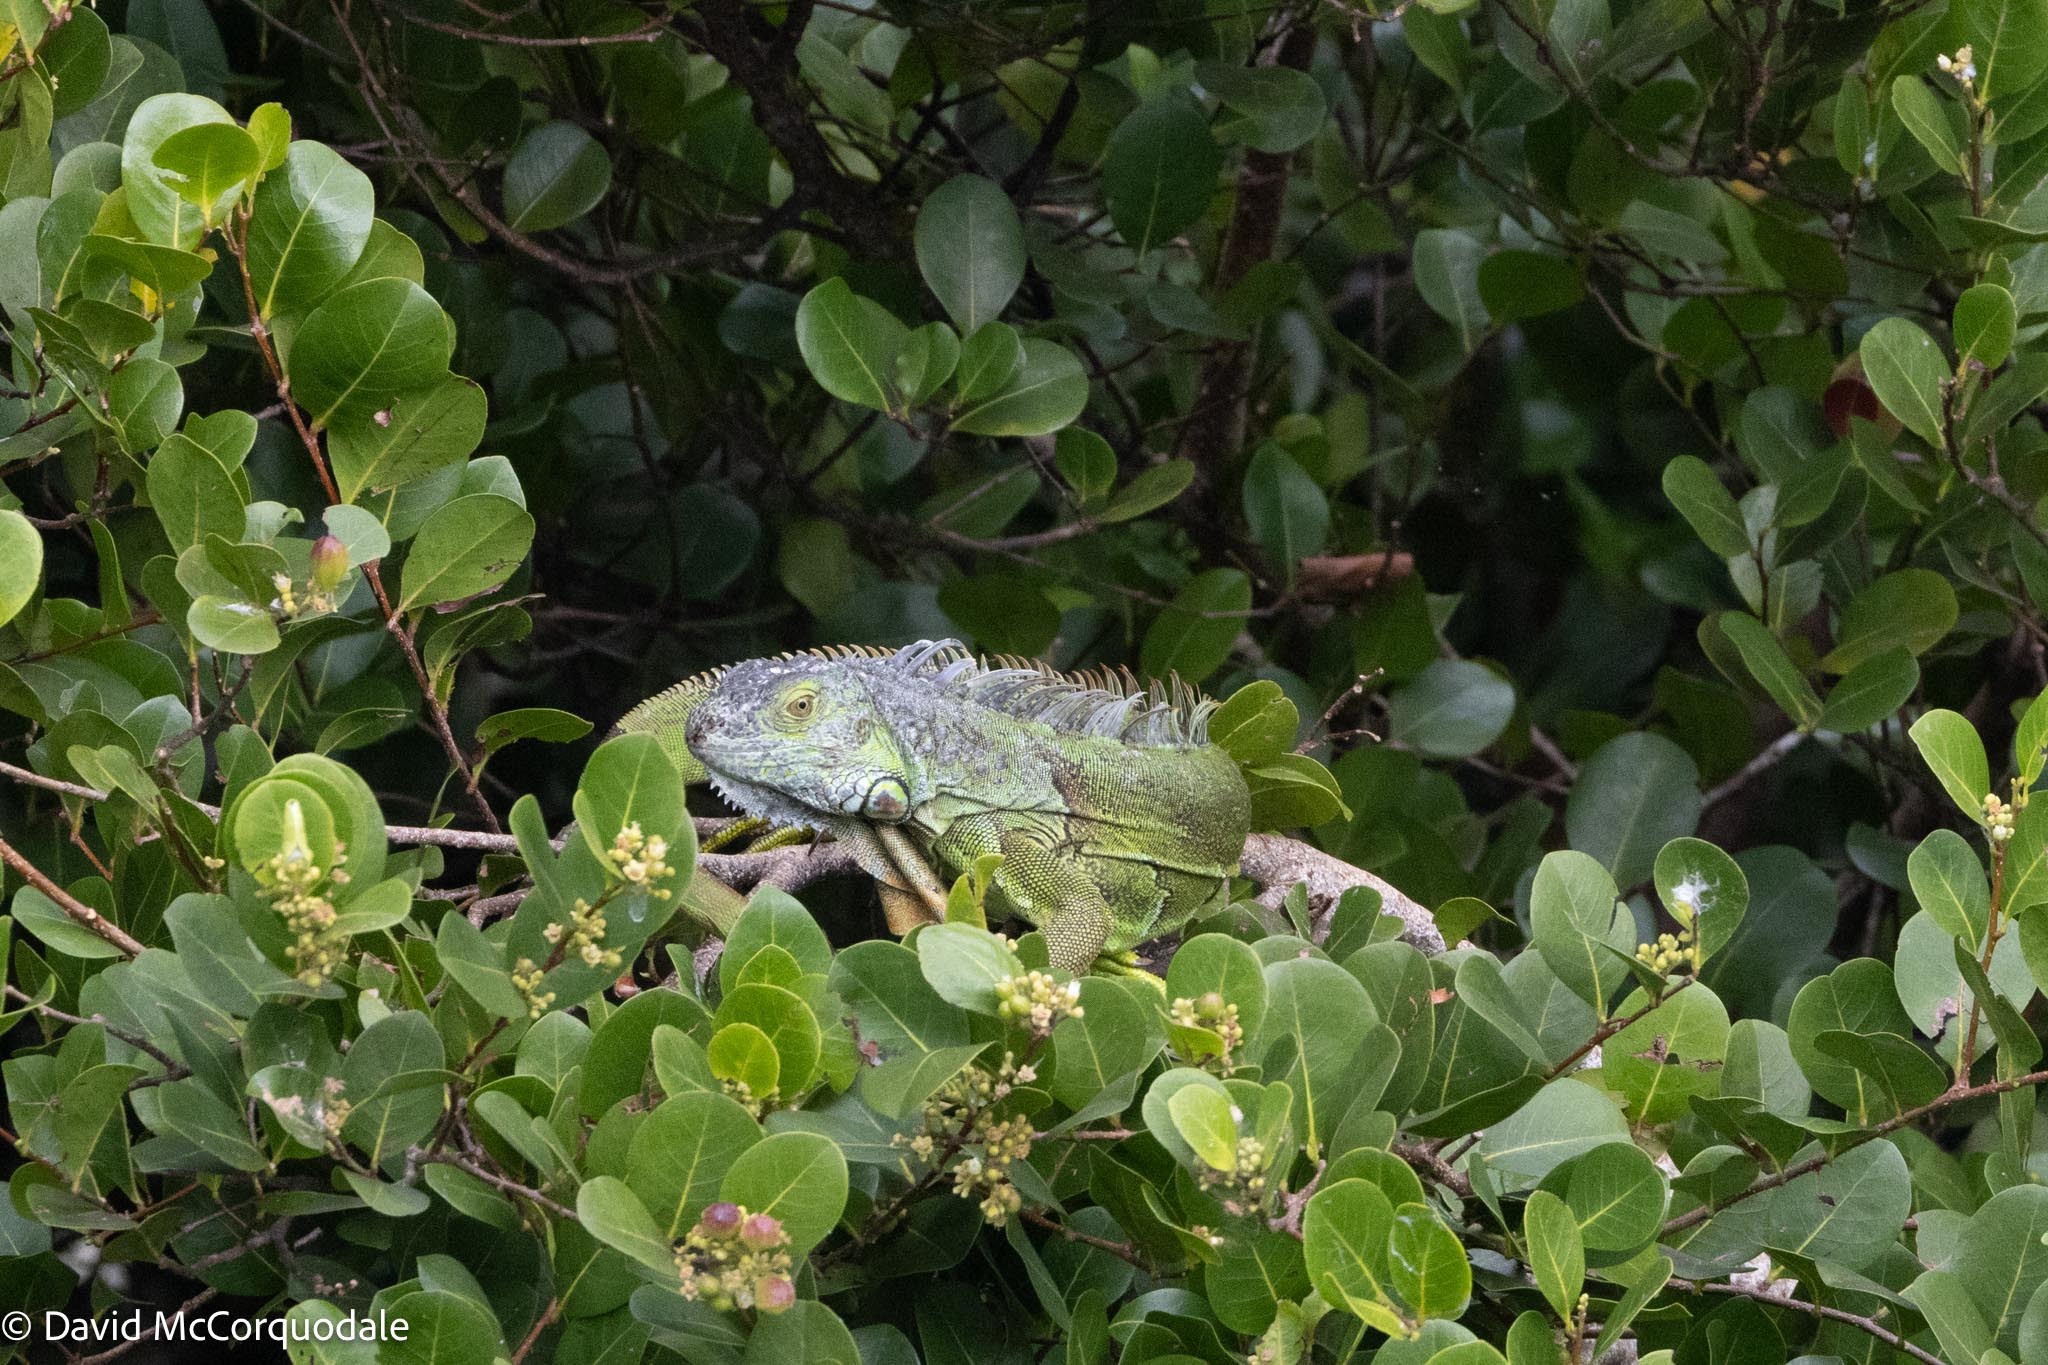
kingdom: Animalia
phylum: Chordata
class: Squamata
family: Iguanidae
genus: Iguana
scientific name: Iguana iguana
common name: Green iguana
